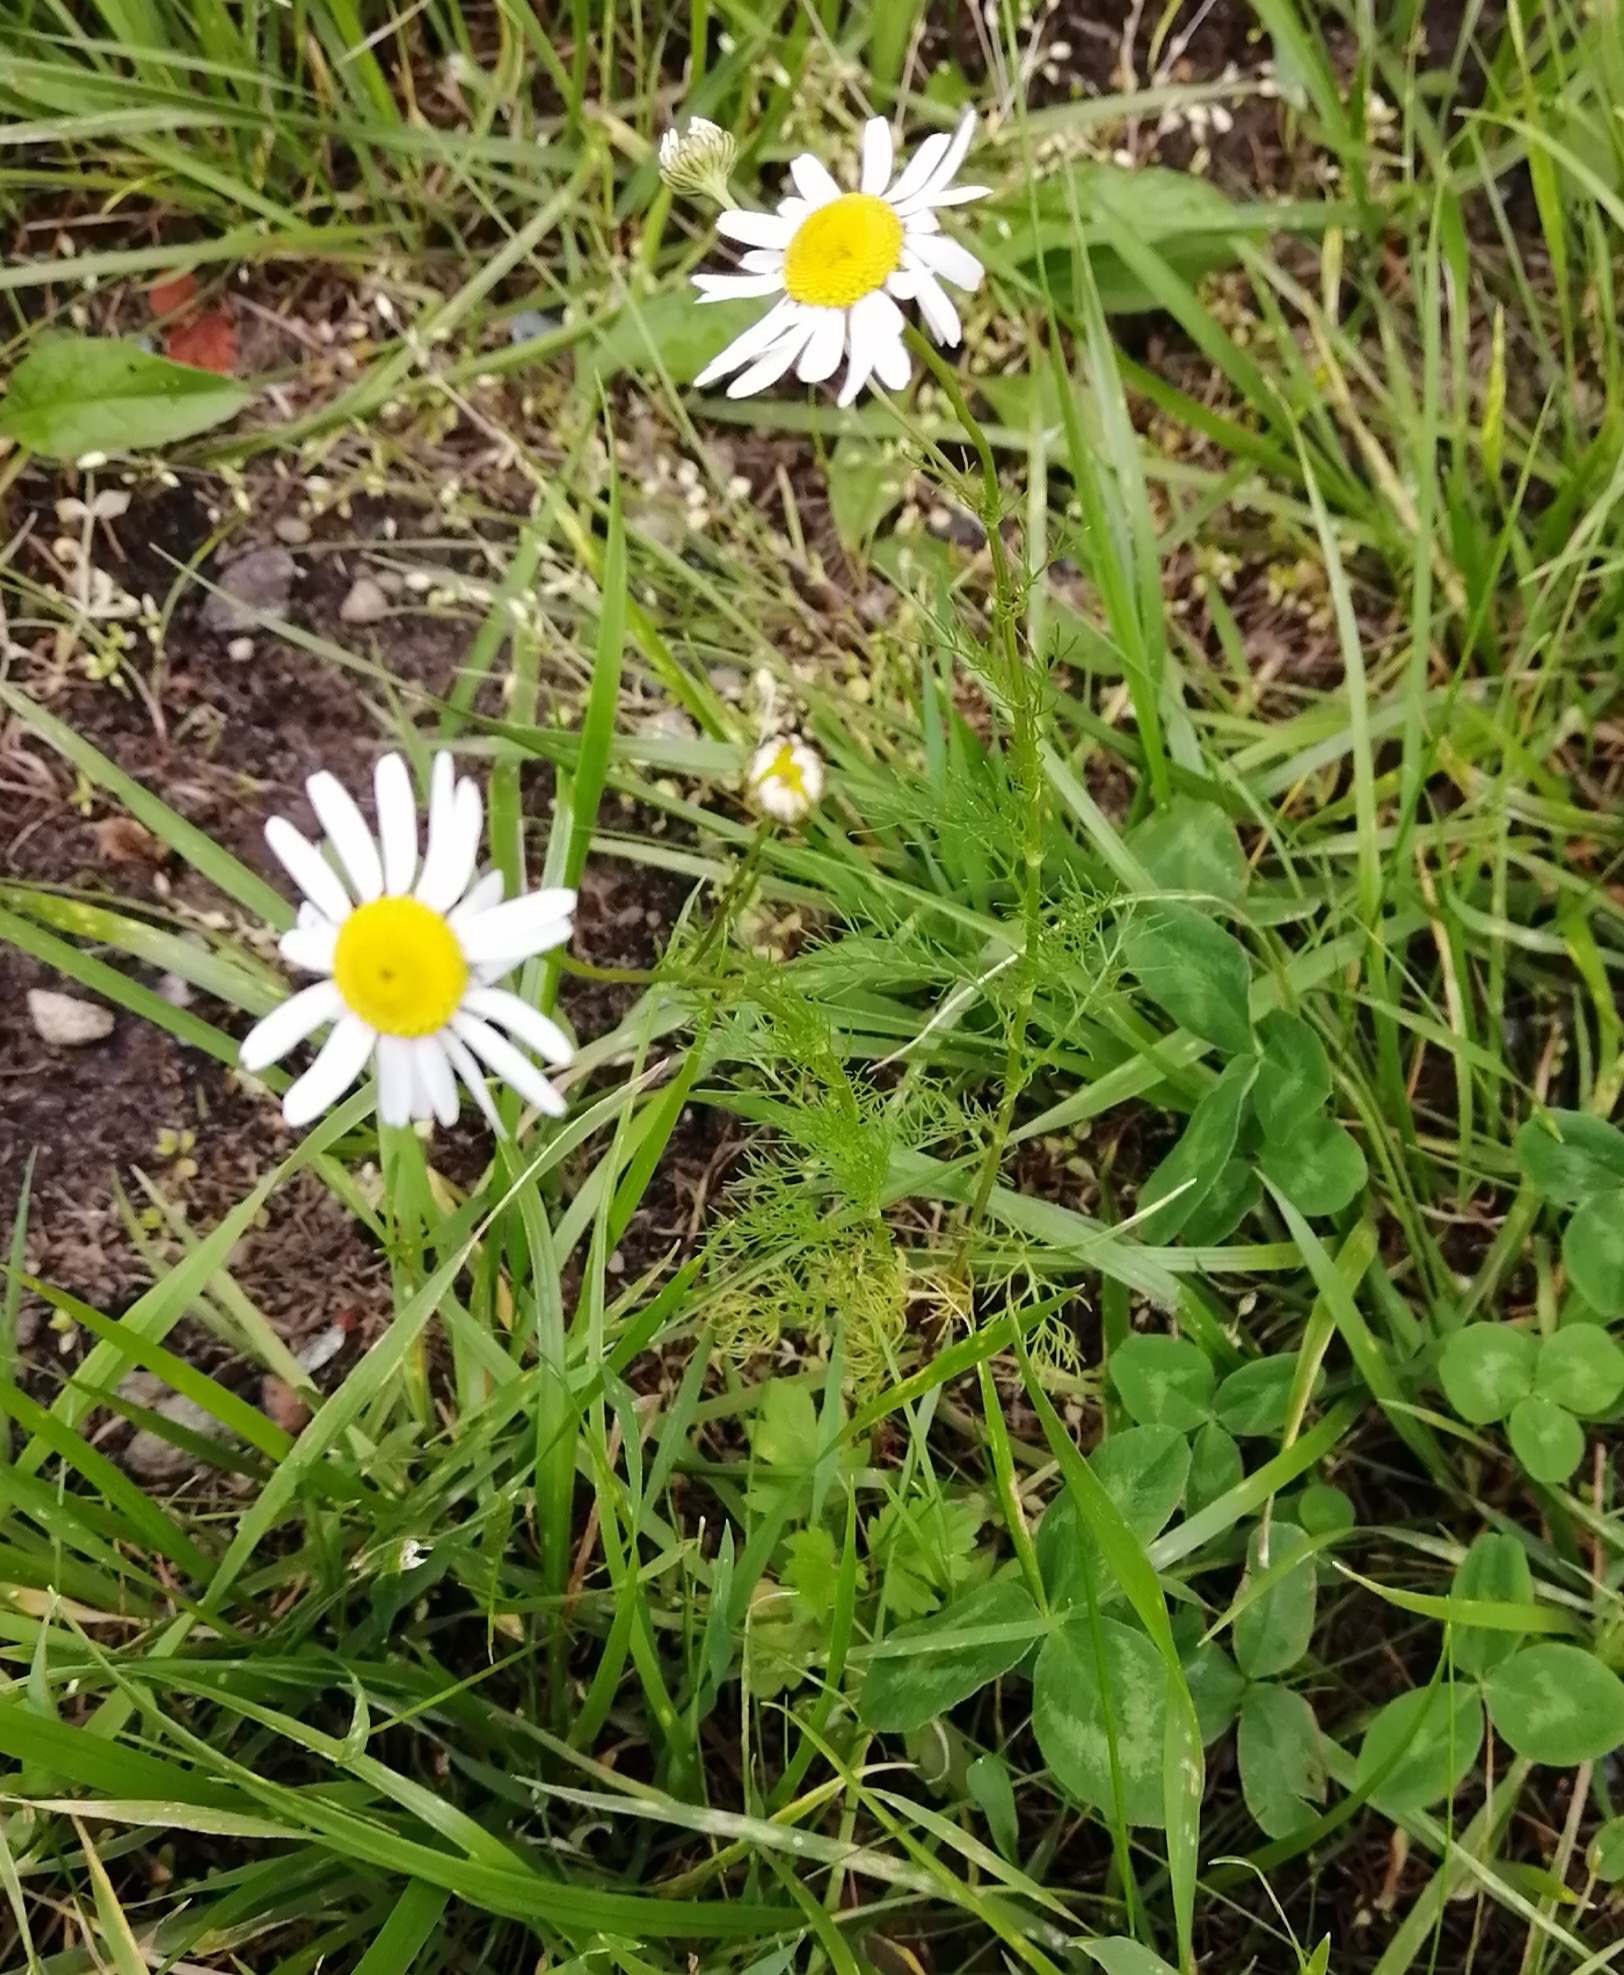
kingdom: Plantae
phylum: Tracheophyta
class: Magnoliopsida
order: Asterales
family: Asteraceae
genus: Tripleurospermum
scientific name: Tripleurospermum inodorum
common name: Scentless mayweed
